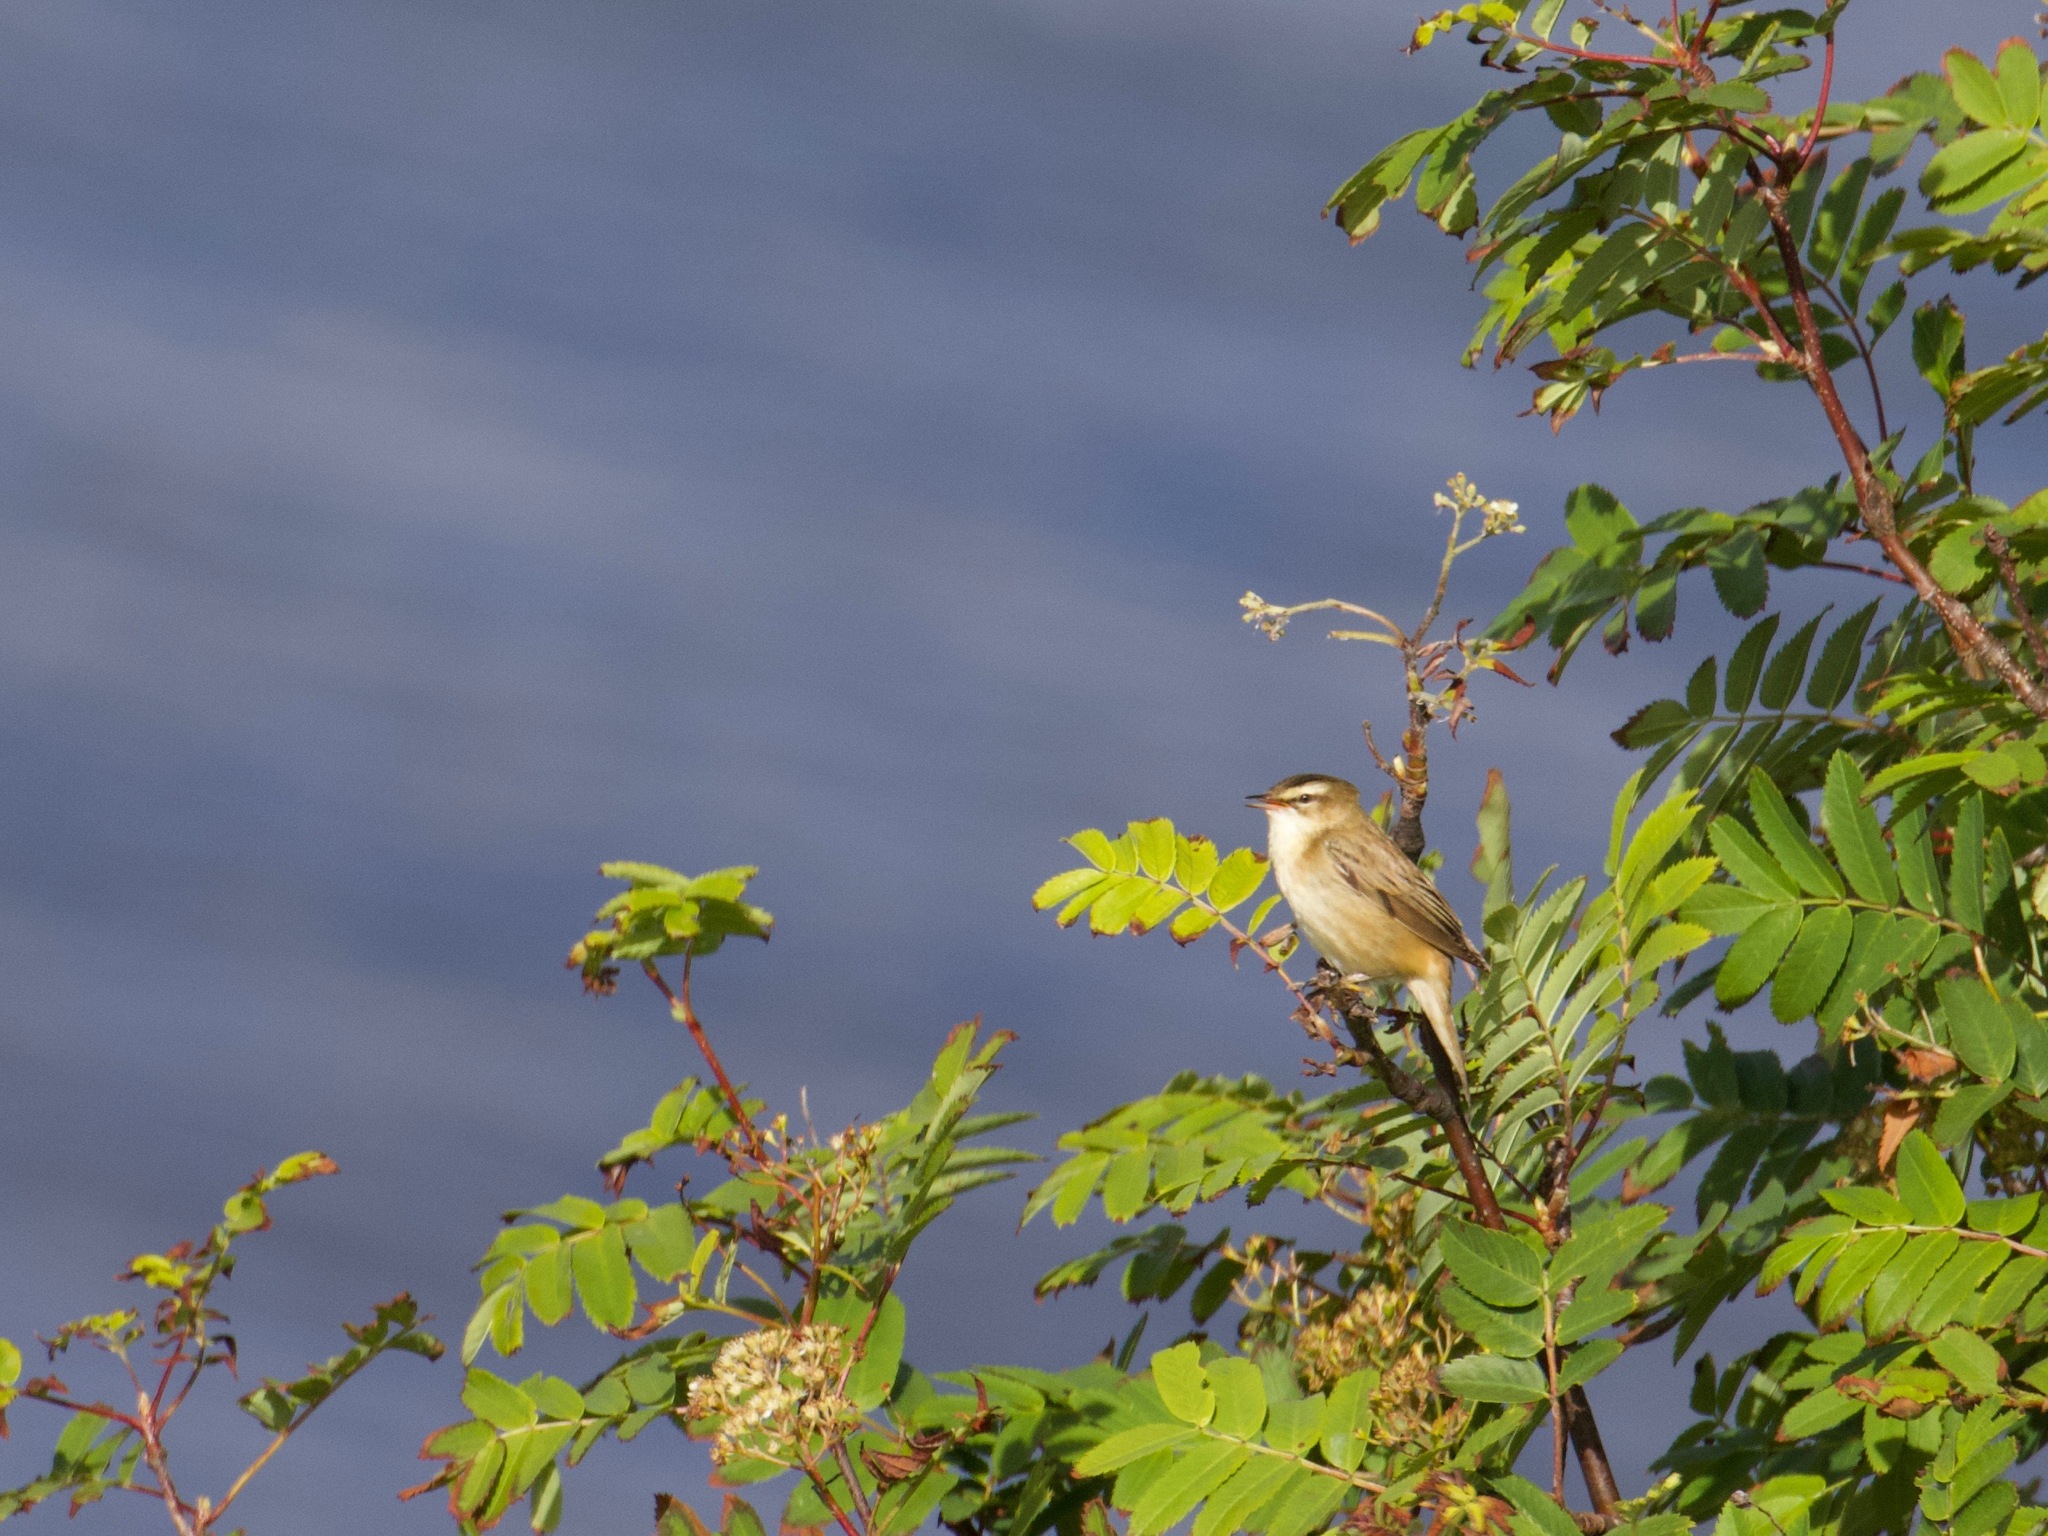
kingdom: Animalia
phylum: Chordata
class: Aves
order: Passeriformes
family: Acrocephalidae
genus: Acrocephalus
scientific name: Acrocephalus schoenobaenus
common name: Sedge warbler
